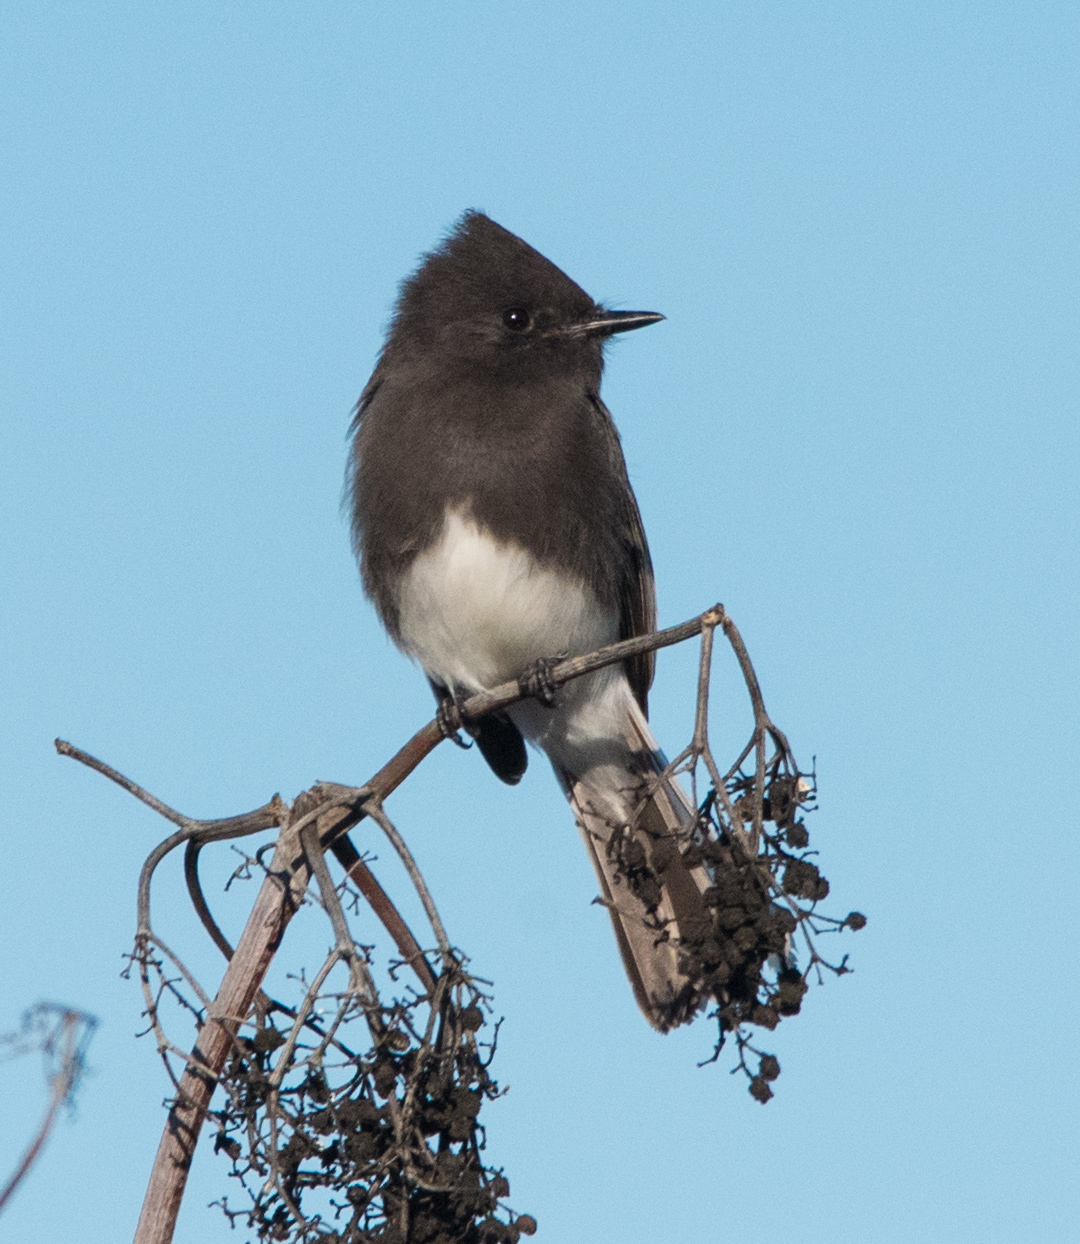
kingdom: Animalia
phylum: Chordata
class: Aves
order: Passeriformes
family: Tyrannidae
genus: Sayornis
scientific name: Sayornis nigricans
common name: Black phoebe
